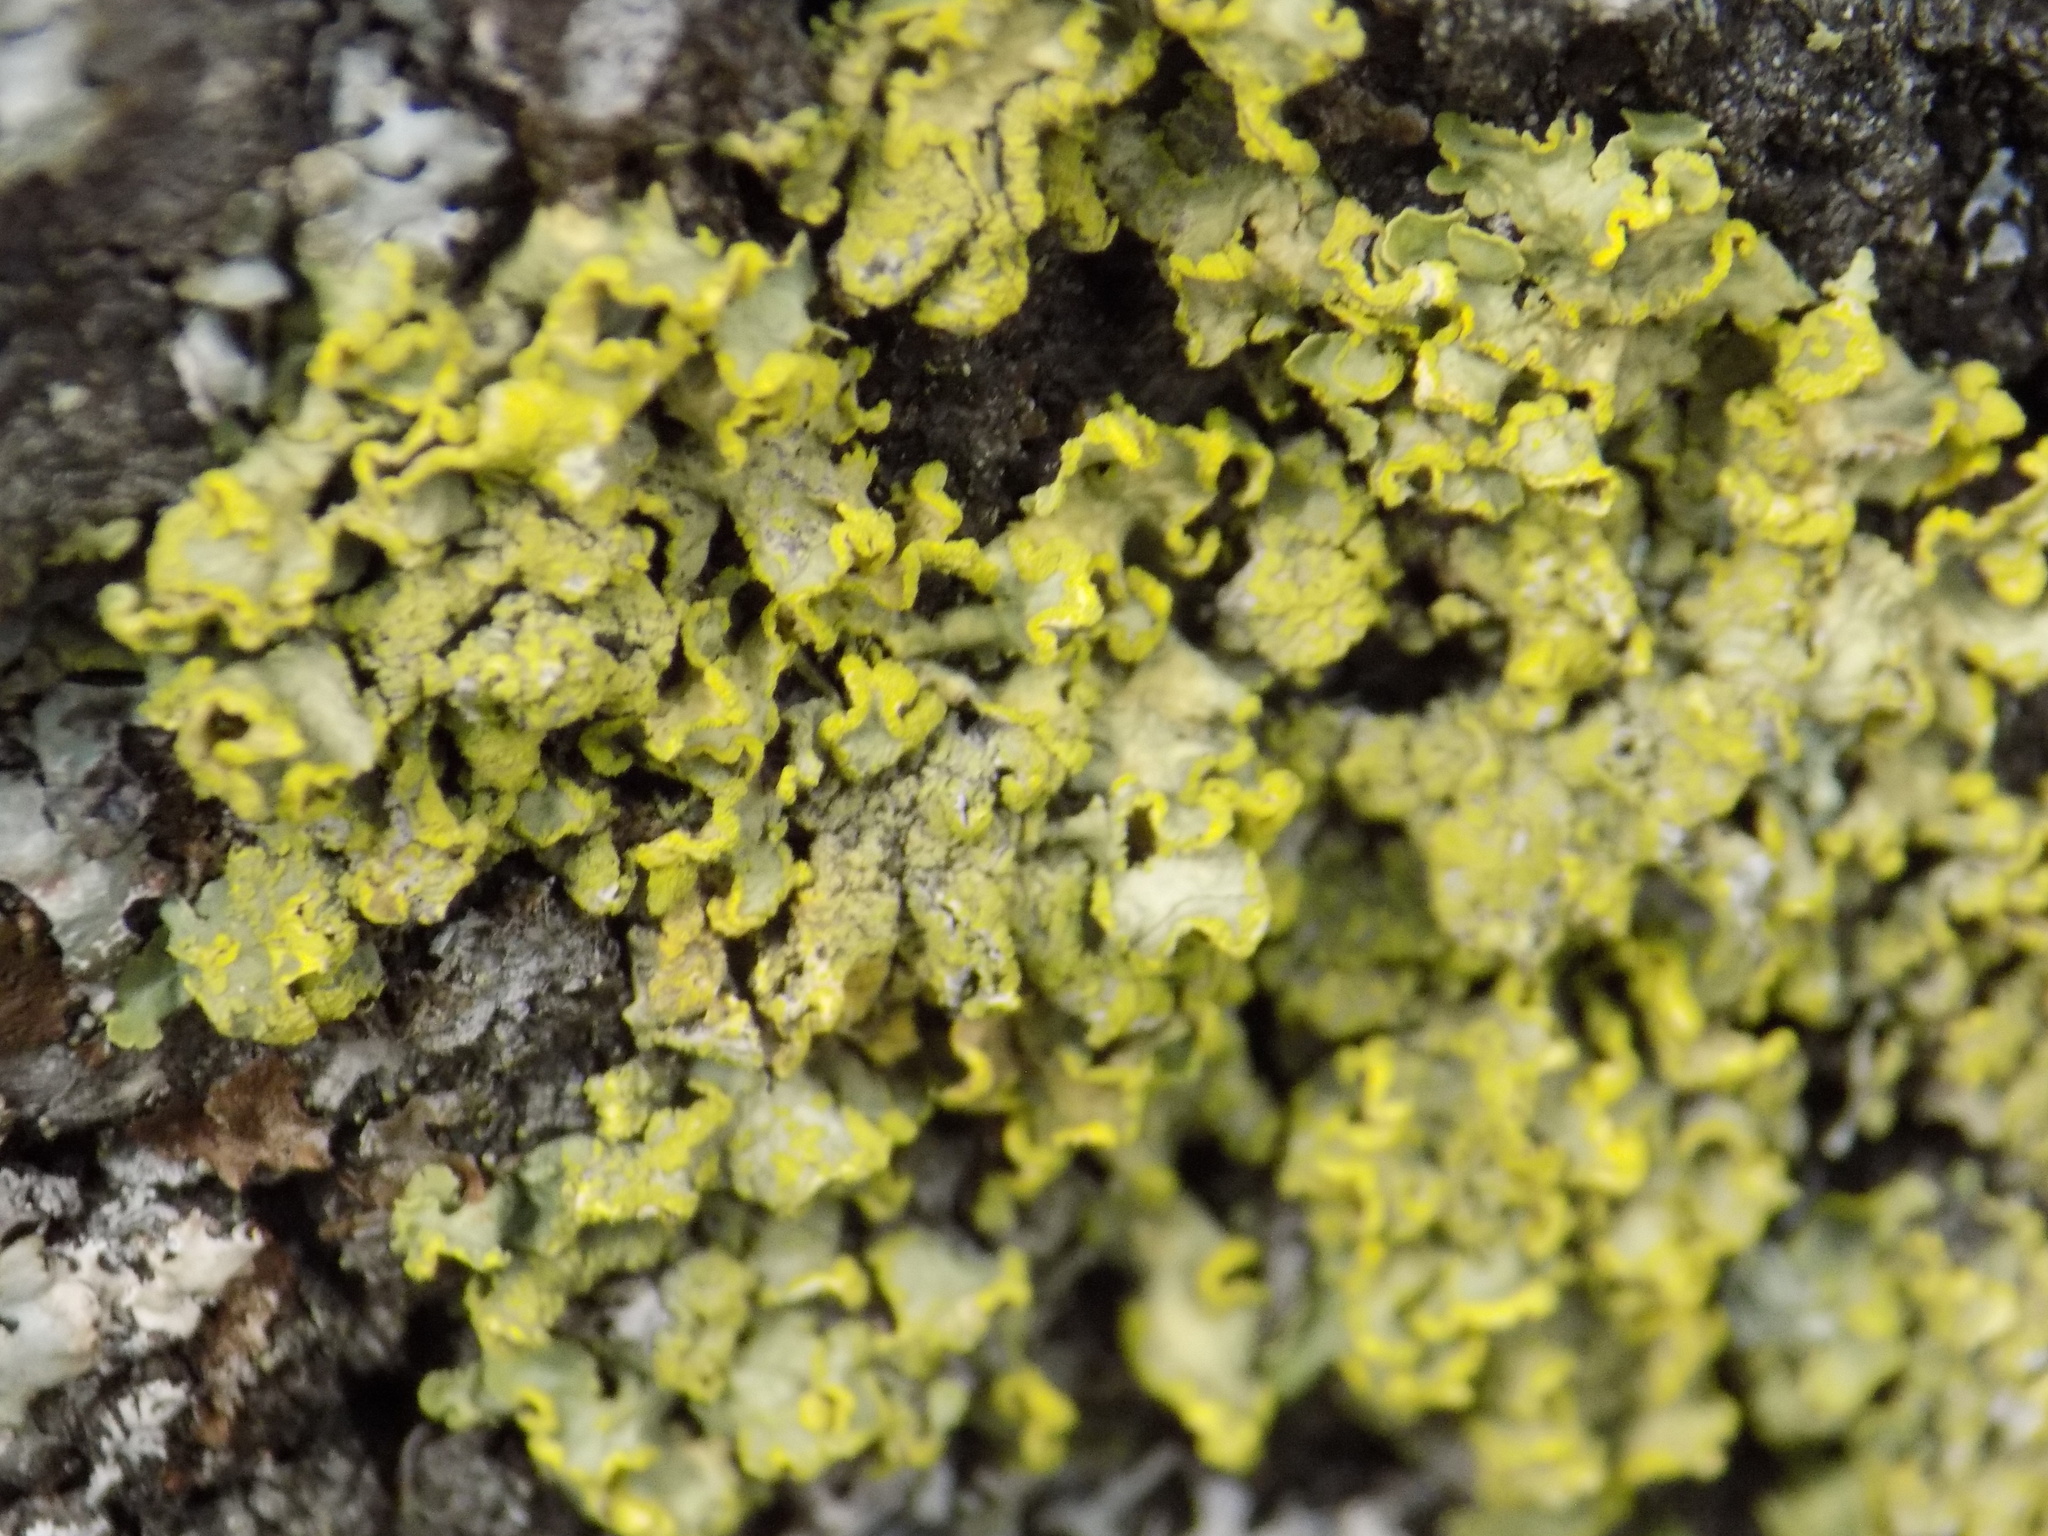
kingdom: Fungi
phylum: Ascomycota
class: Lecanoromycetes
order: Lecanorales
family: Parmeliaceae
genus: Vulpicida
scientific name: Vulpicida pinastri
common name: Powdered sunshine lichen
